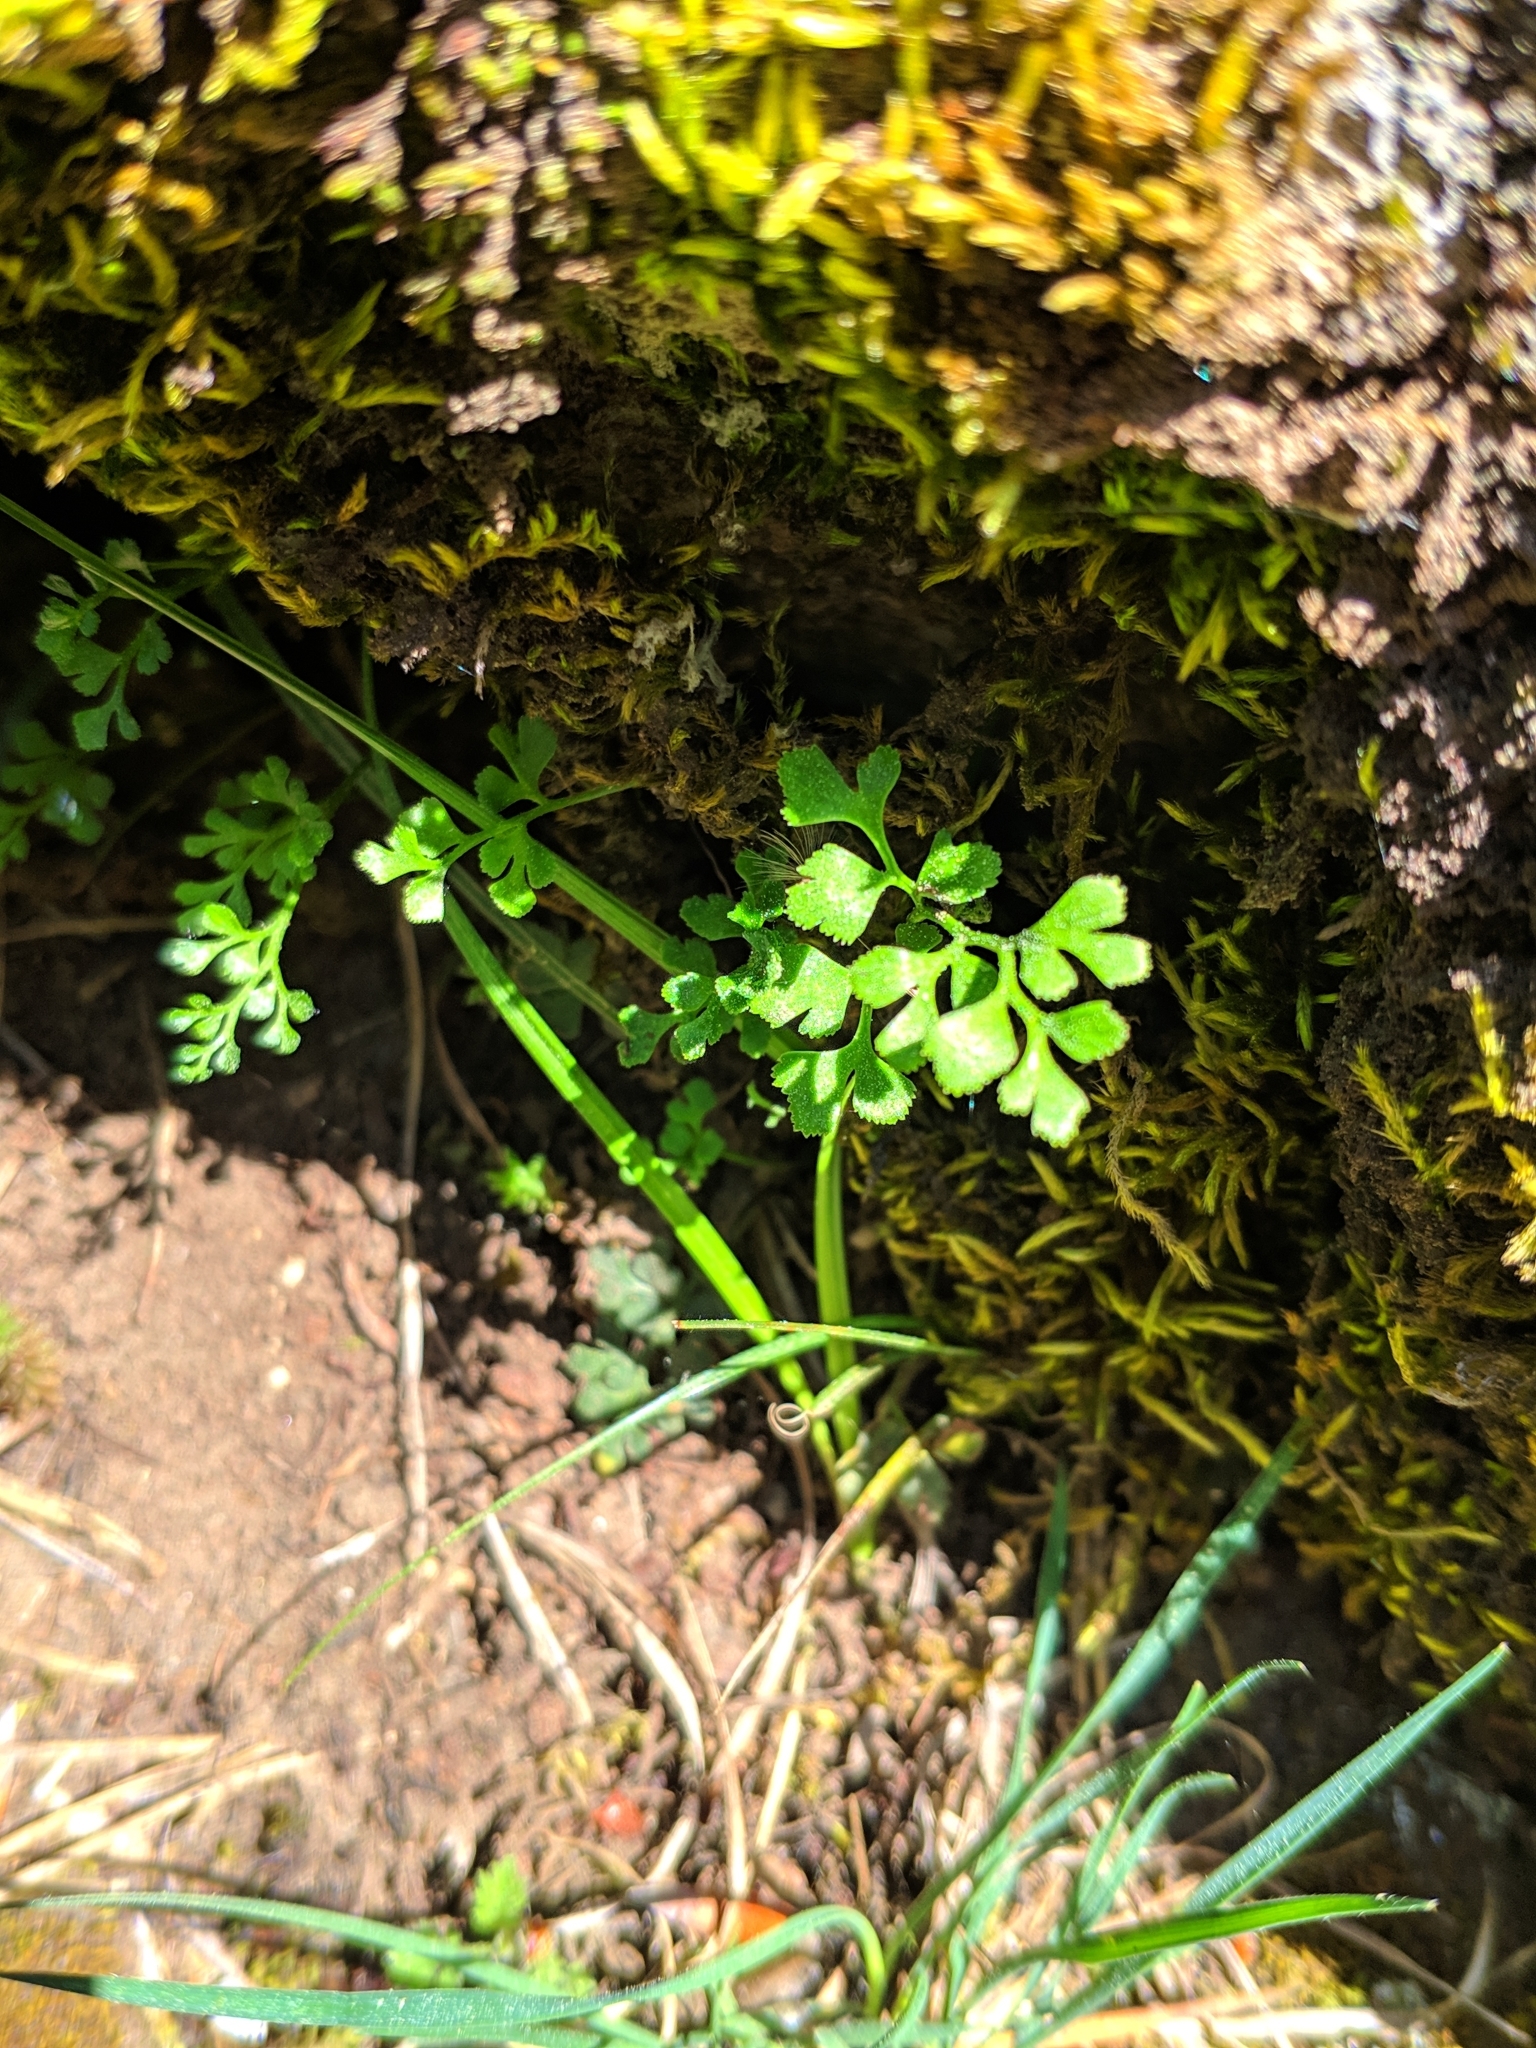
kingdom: Plantae
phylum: Tracheophyta
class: Polypodiopsida
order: Polypodiales
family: Aspleniaceae
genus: Asplenium
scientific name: Asplenium ruta-muraria
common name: Wall-rue
